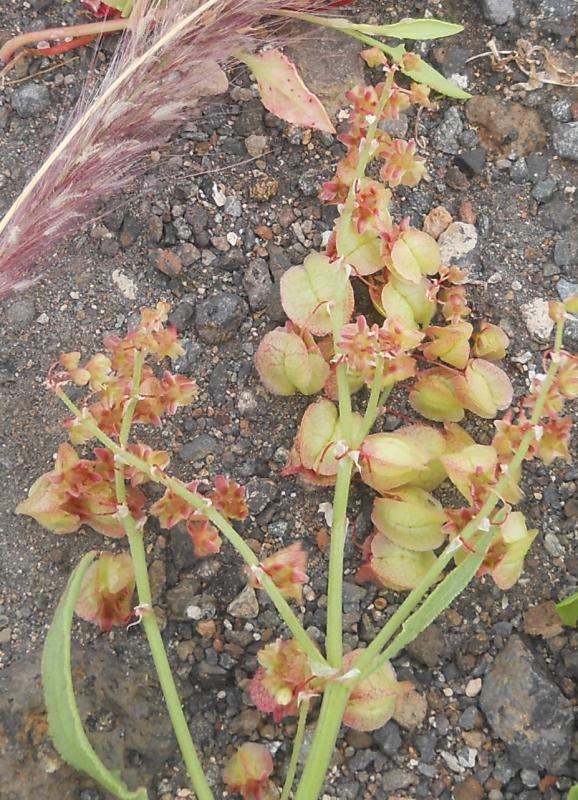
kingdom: Plantae
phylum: Tracheophyta
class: Magnoliopsida
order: Caryophyllales
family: Polygonaceae
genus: Rumex
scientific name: Rumex vesicarius
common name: Bladder dock
